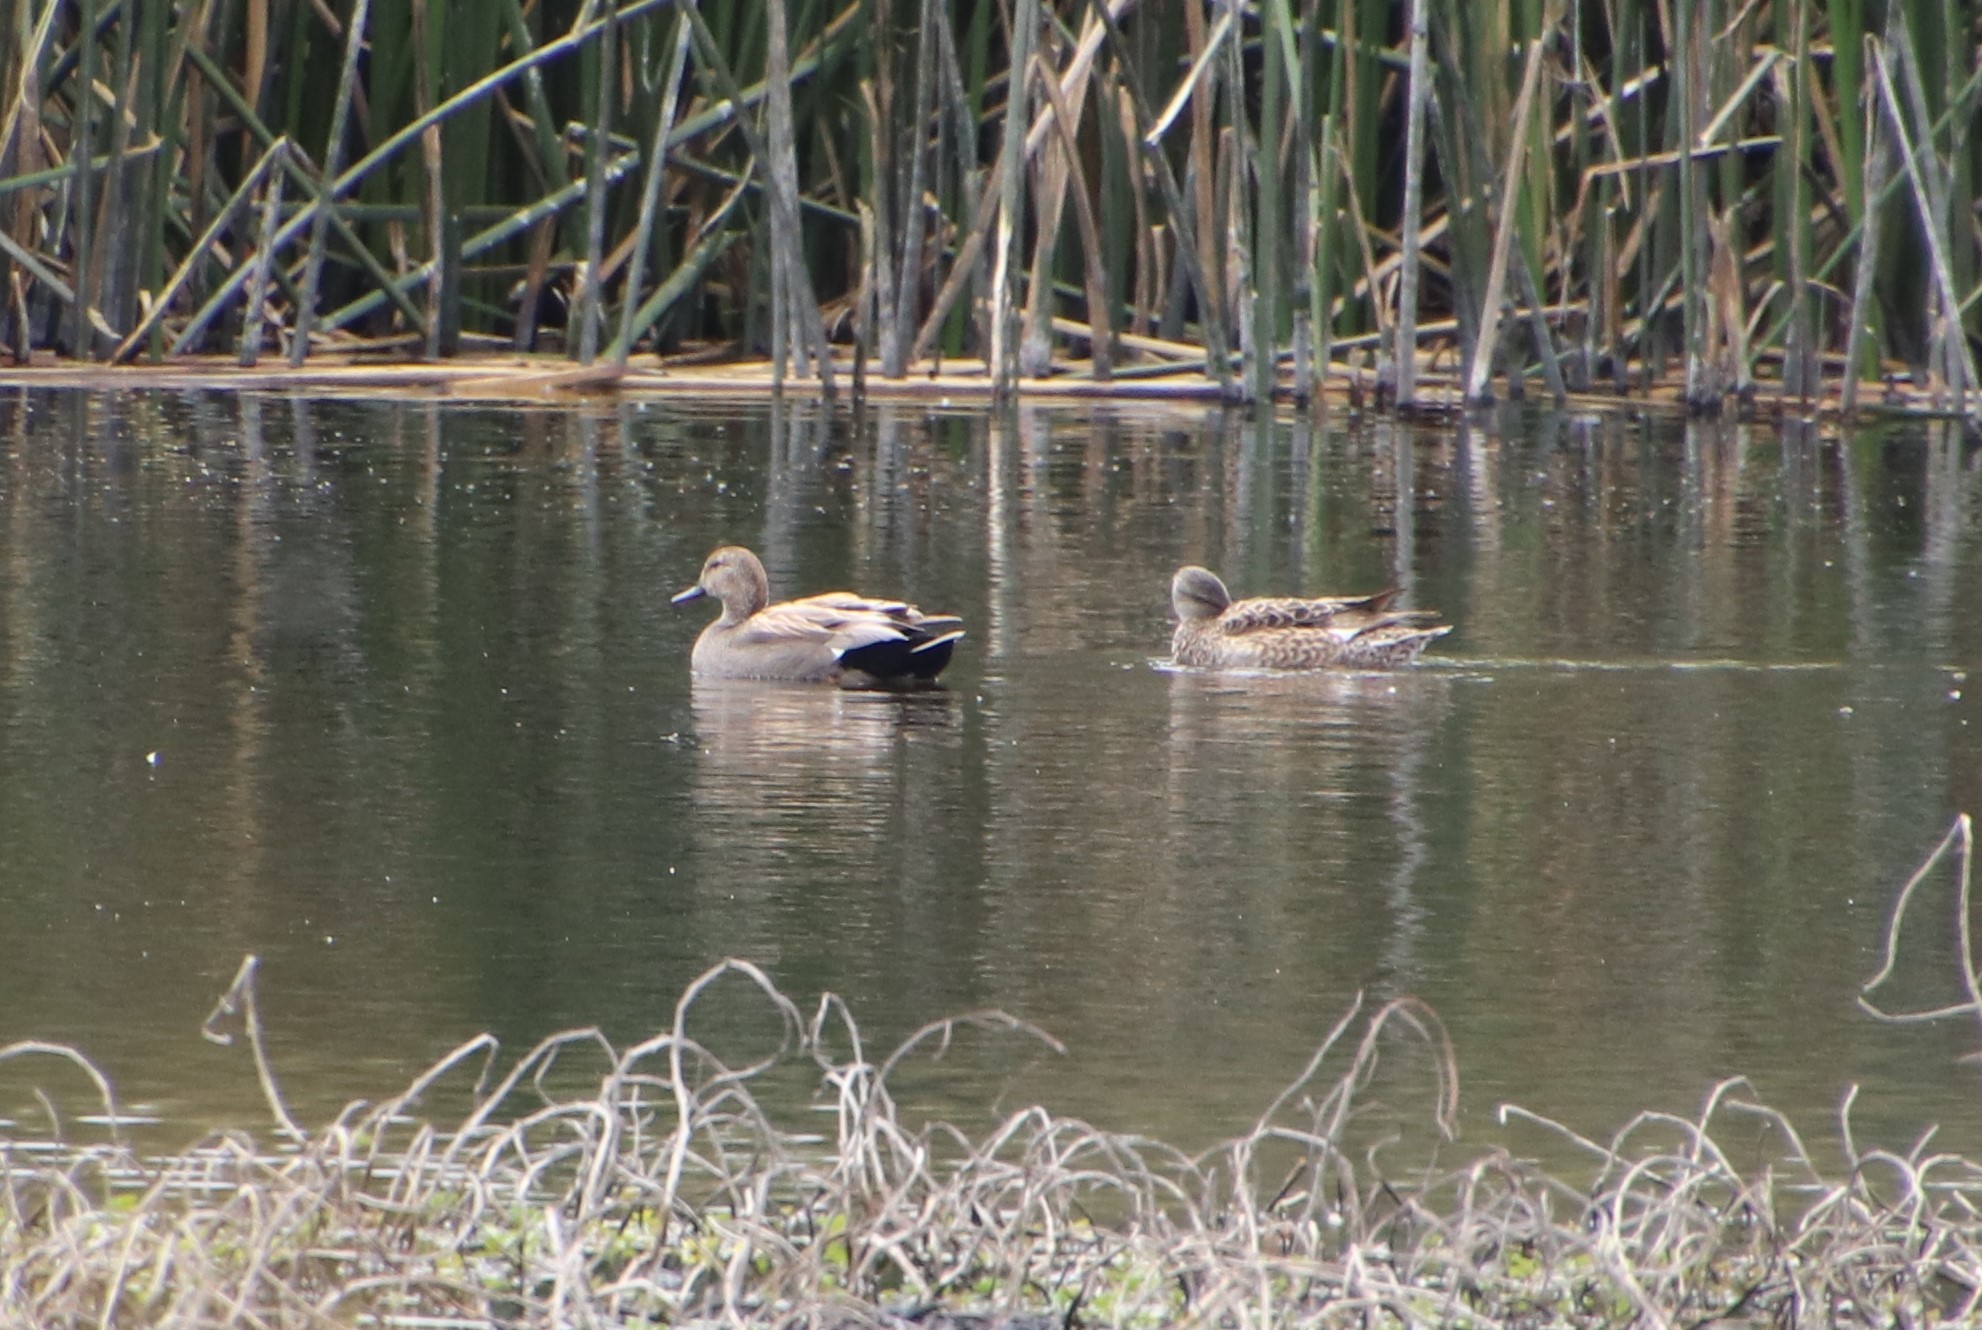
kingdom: Animalia
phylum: Chordata
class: Aves
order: Anseriformes
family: Anatidae
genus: Mareca
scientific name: Mareca strepera
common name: Gadwall
